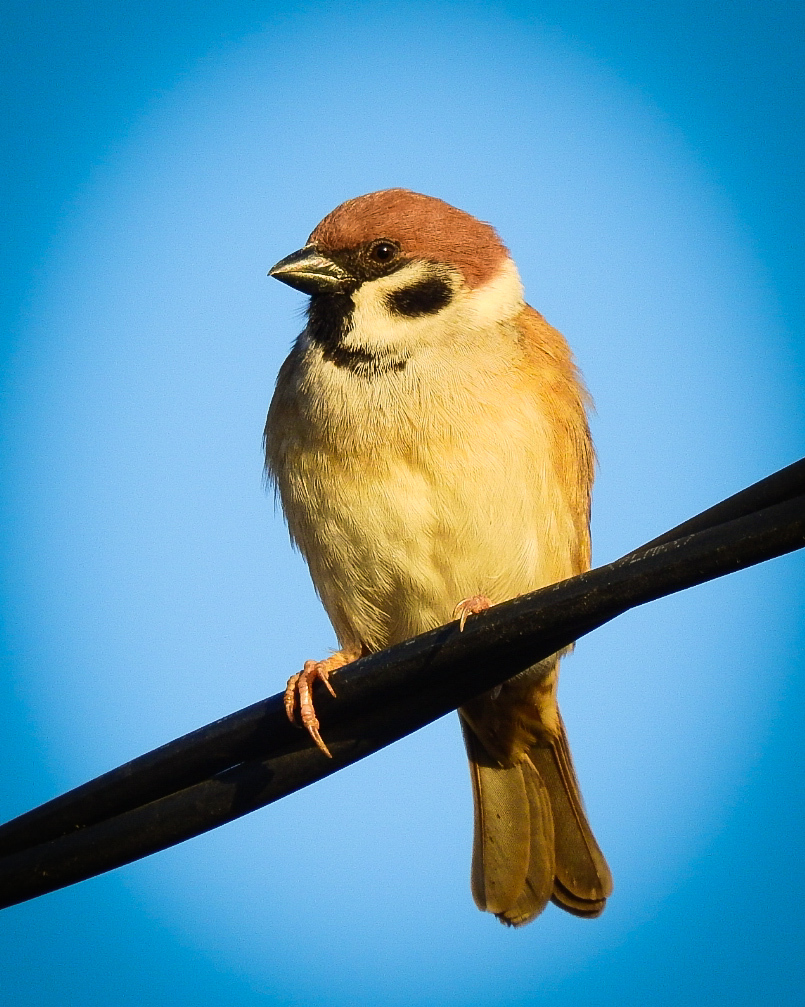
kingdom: Animalia
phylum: Chordata
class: Aves
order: Passeriformes
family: Passeridae
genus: Passer
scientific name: Passer montanus
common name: Eurasian tree sparrow
